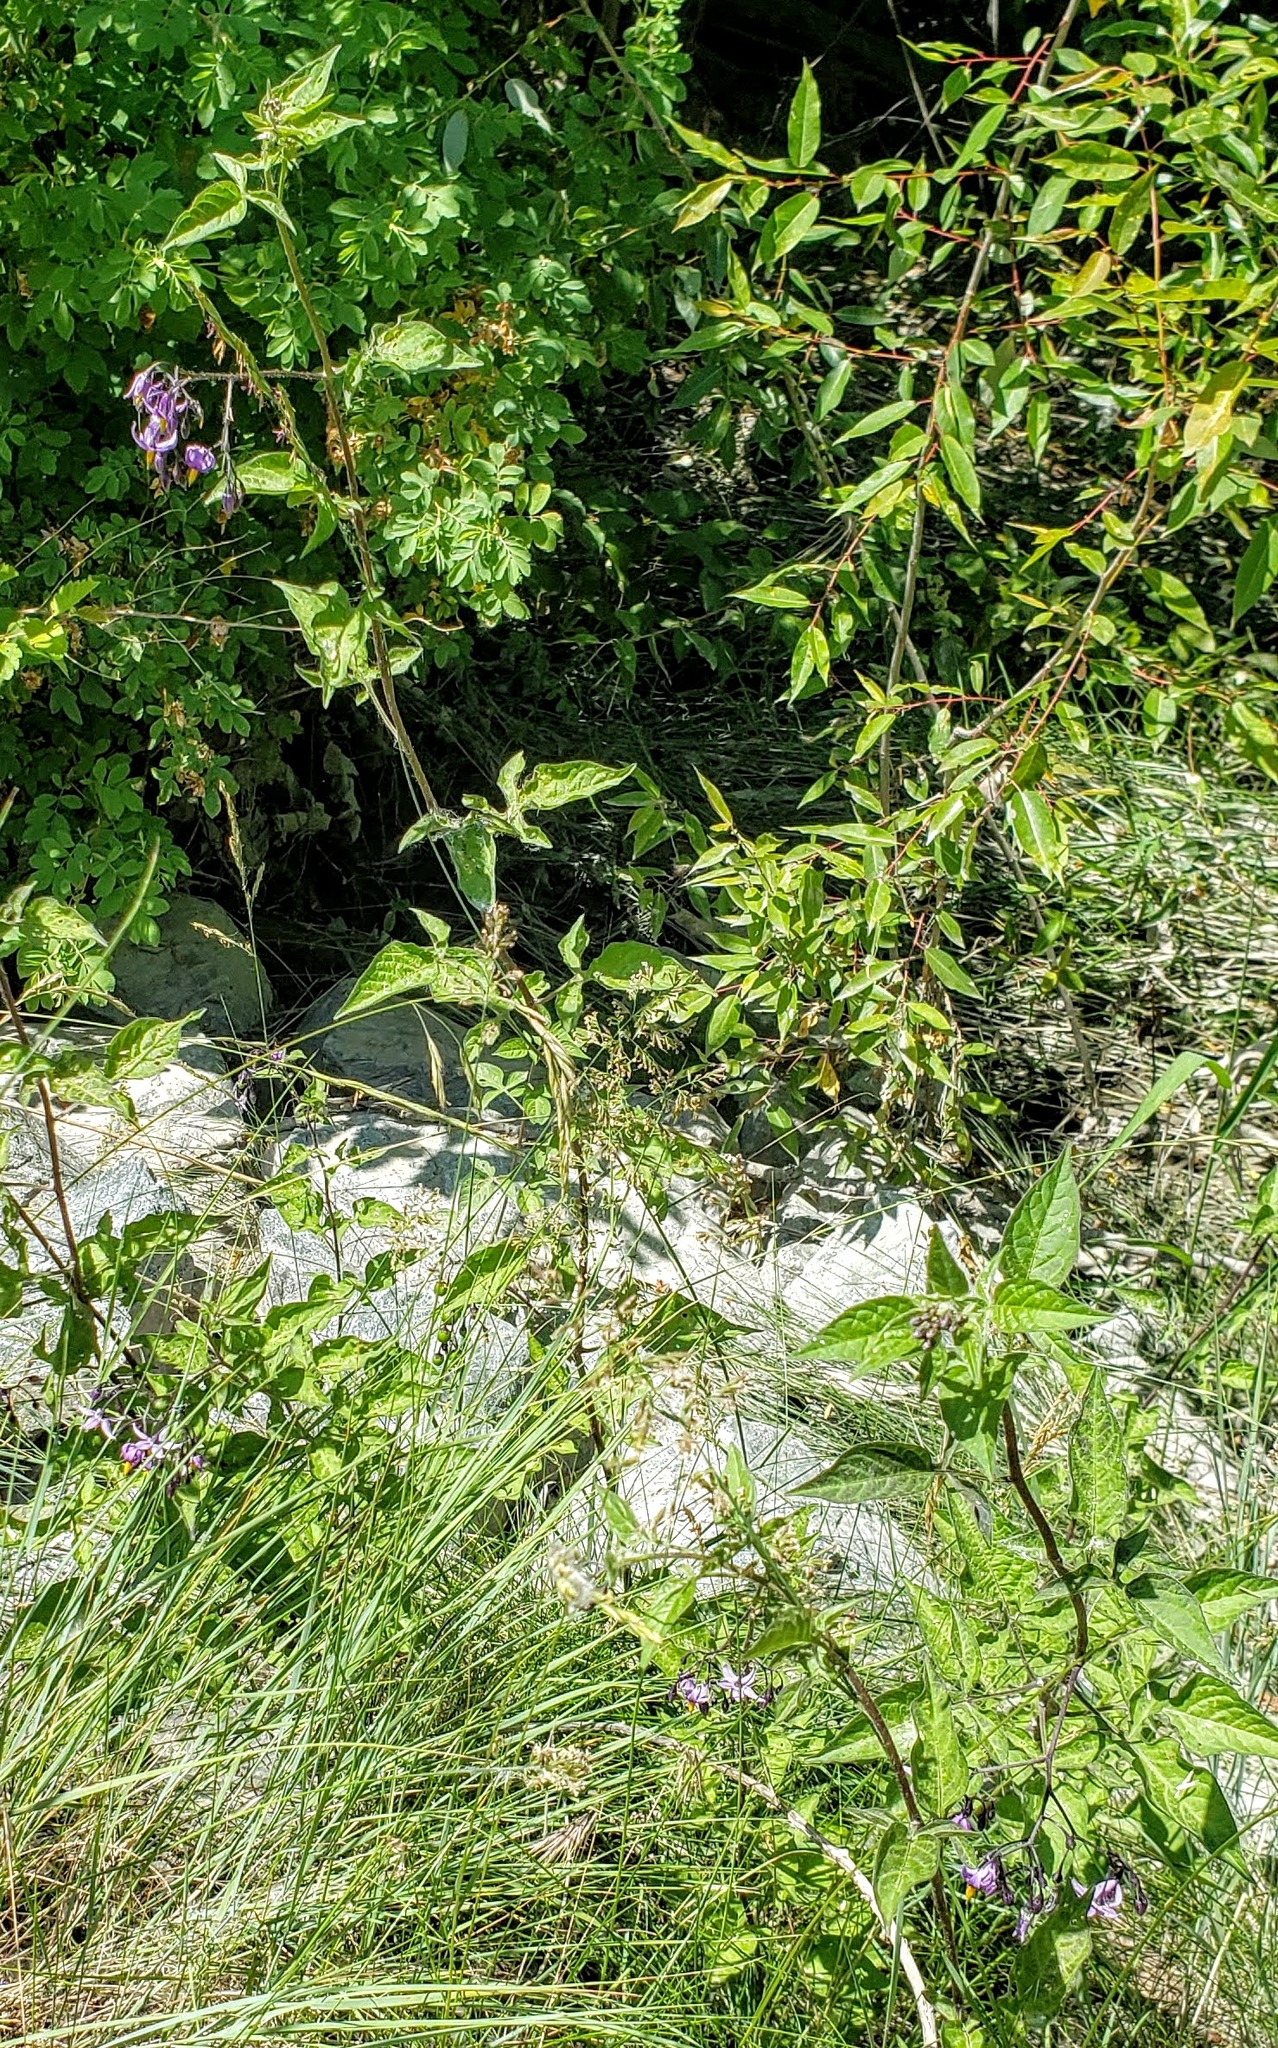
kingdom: Plantae
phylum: Tracheophyta
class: Magnoliopsida
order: Solanales
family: Solanaceae
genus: Solanum
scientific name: Solanum dulcamara
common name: Climbing nightshade
